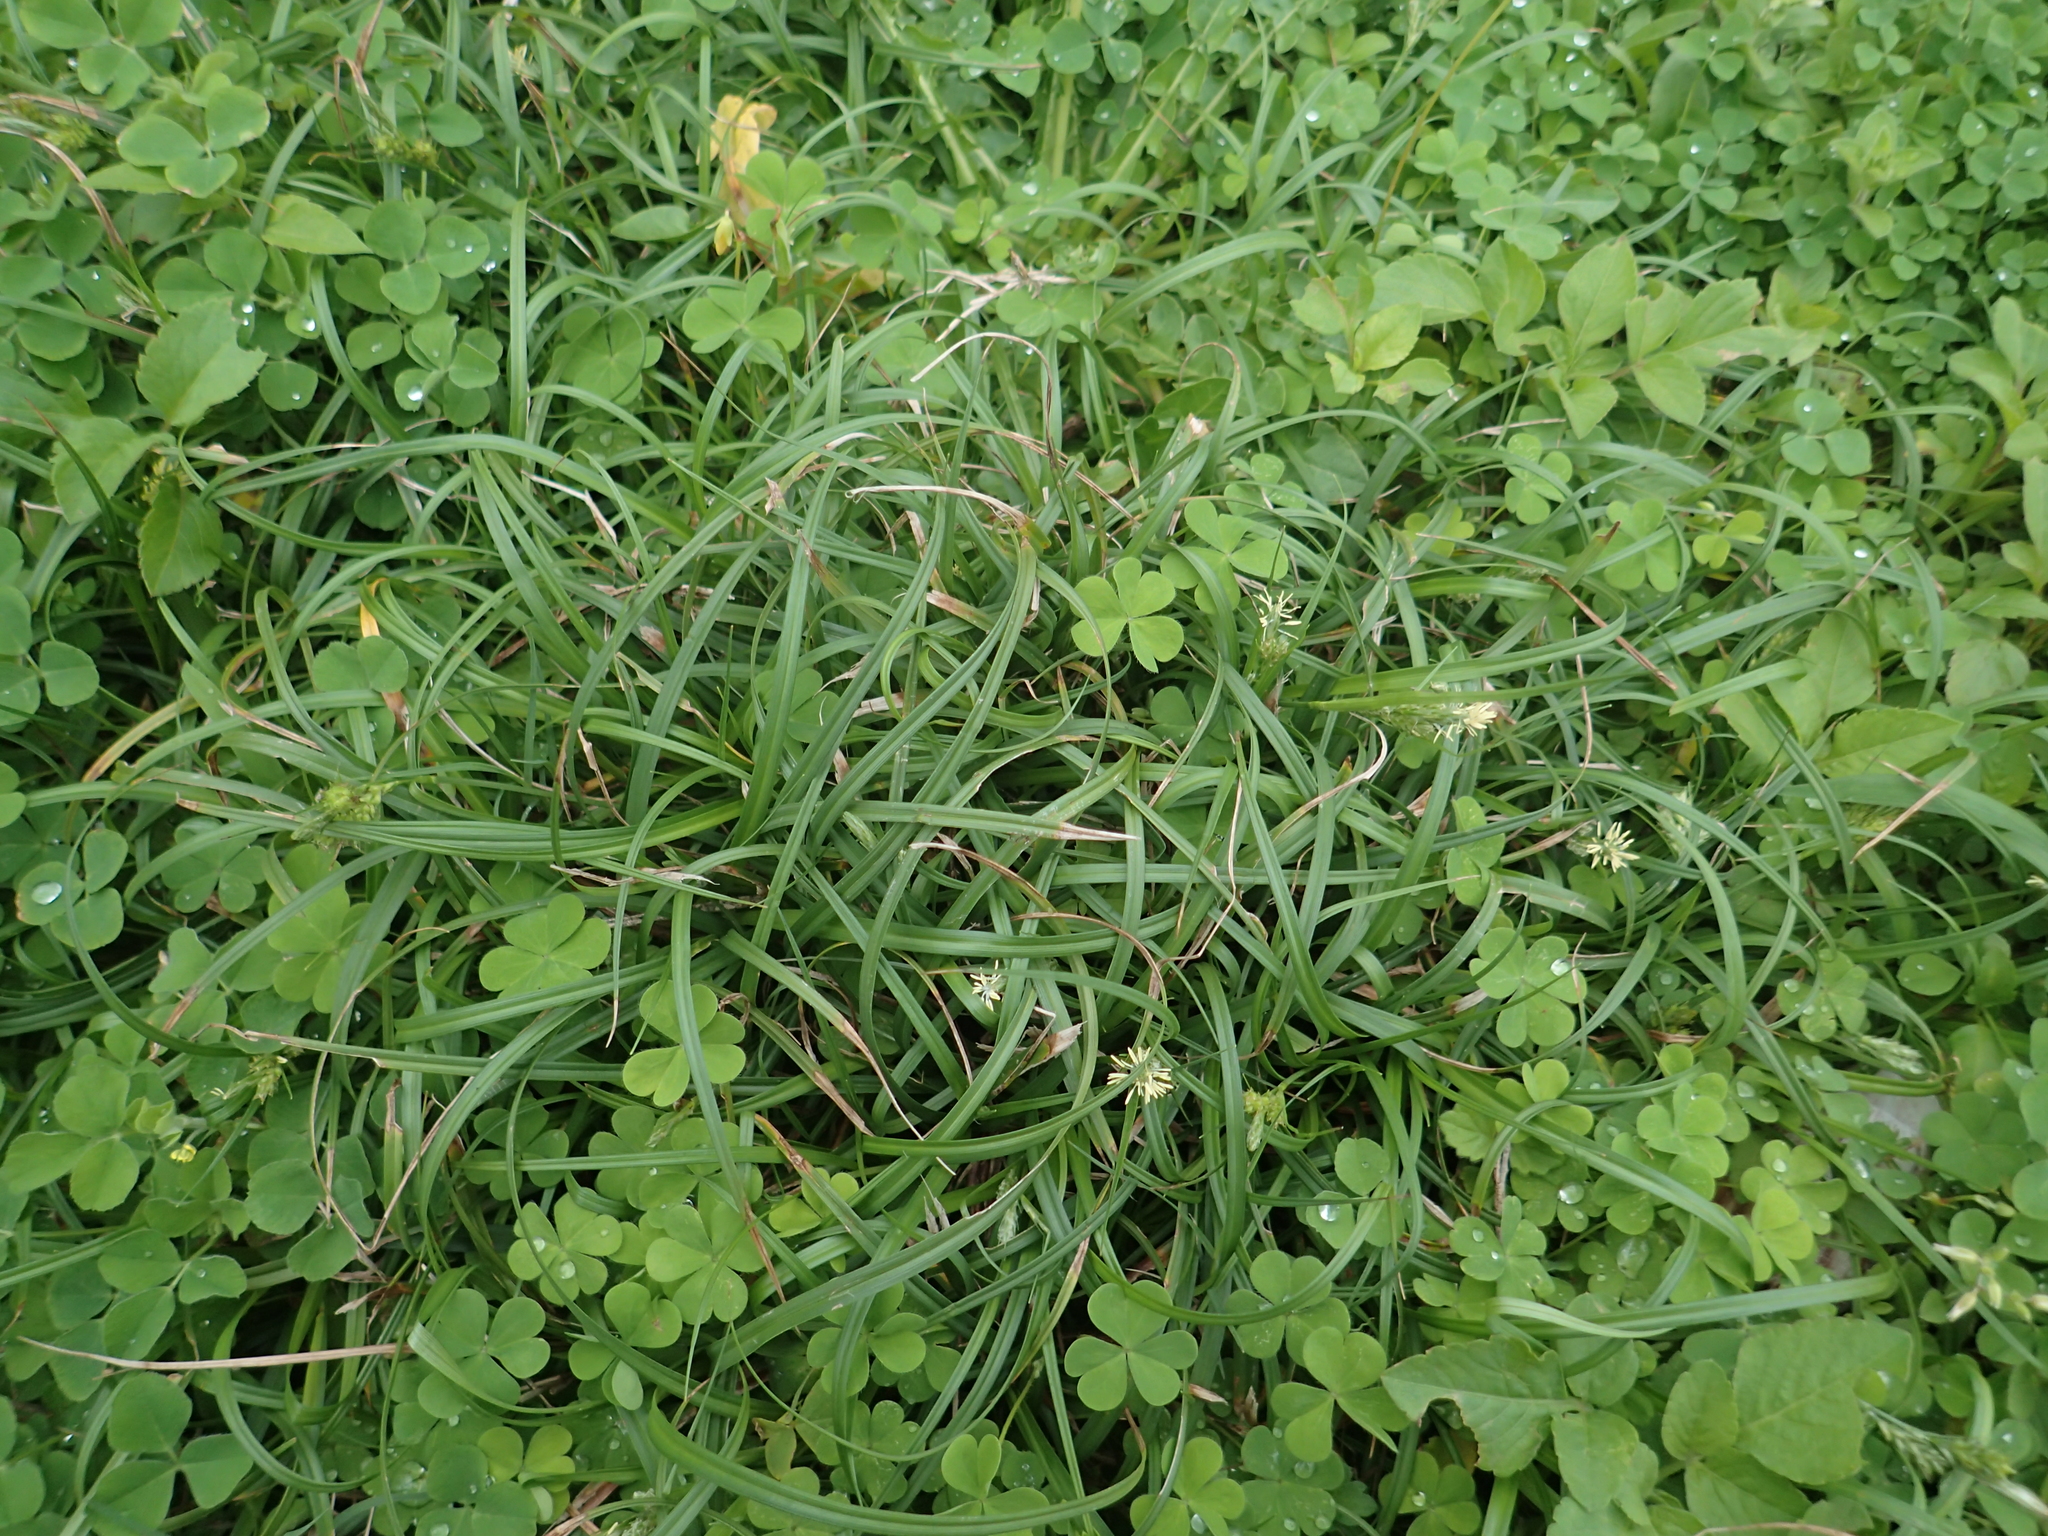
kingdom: Plantae
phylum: Tracheophyta
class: Liliopsida
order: Poales
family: Cyperaceae
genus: Carex
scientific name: Carex fibrillosa
